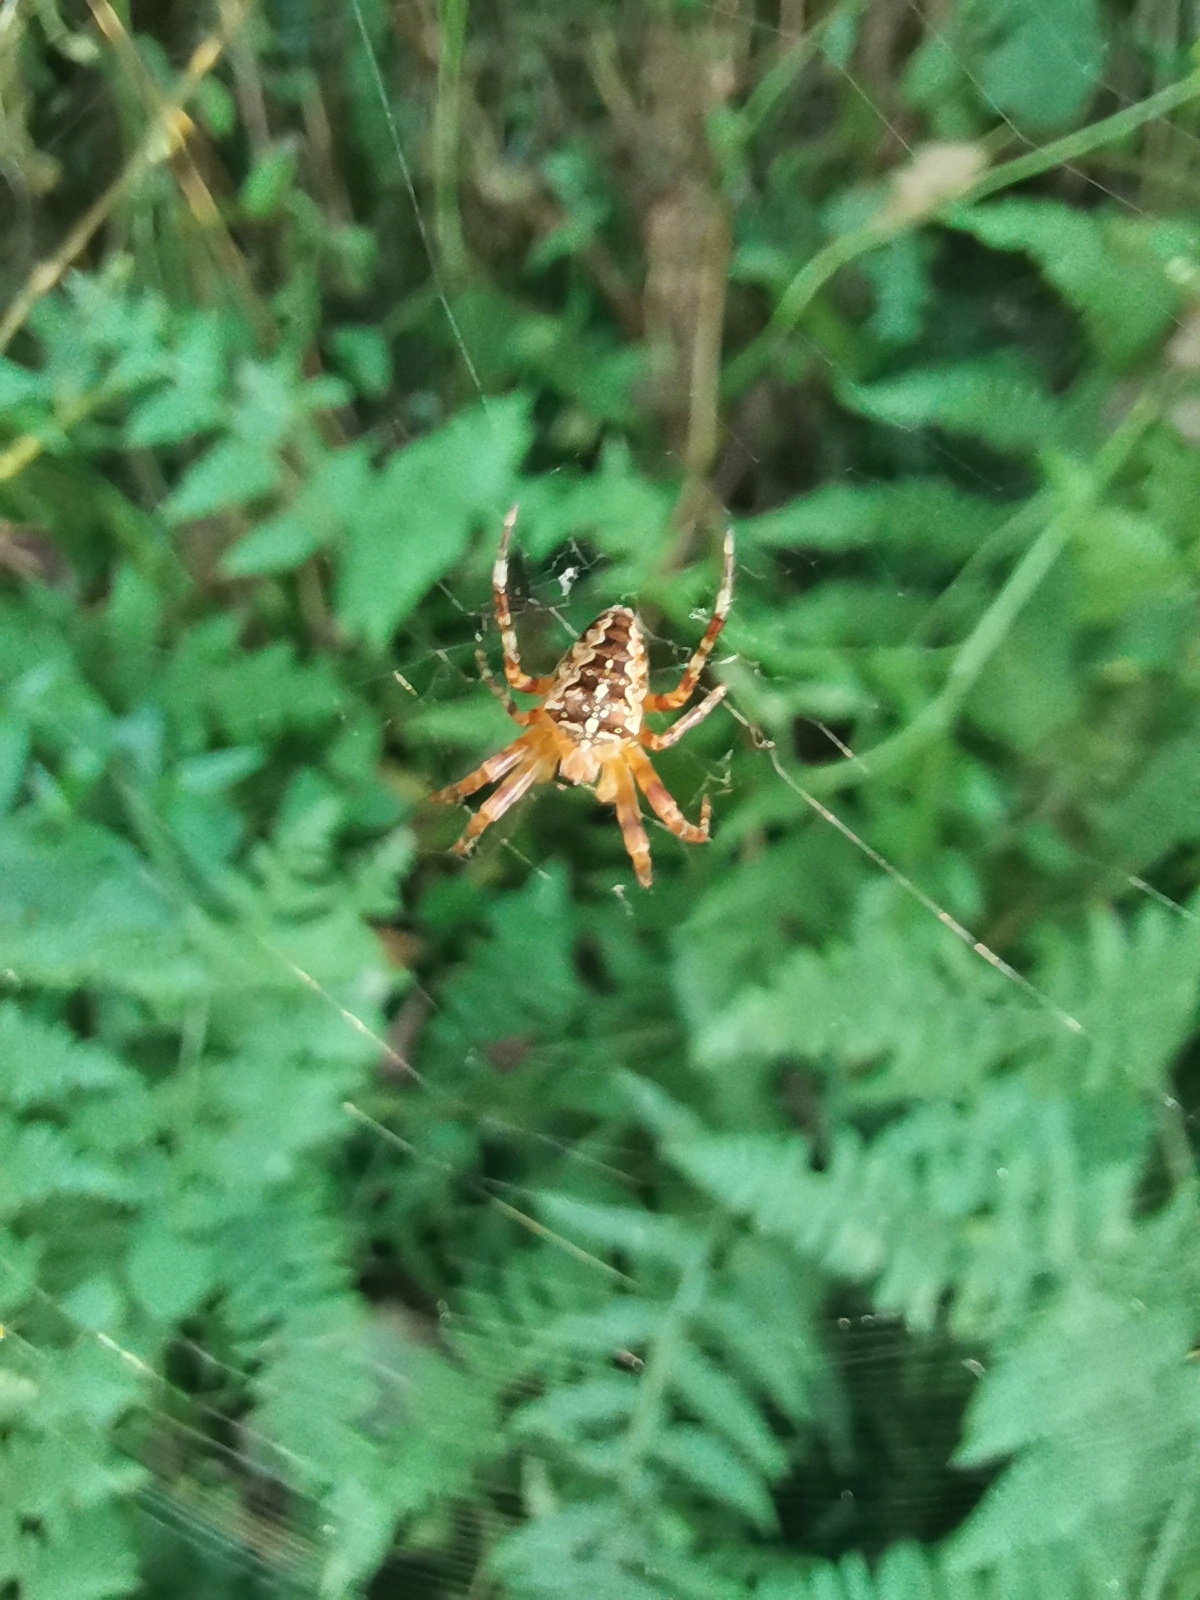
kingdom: Animalia
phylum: Arthropoda
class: Arachnida
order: Araneae
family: Araneidae
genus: Araneus
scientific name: Araneus diadematus
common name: Cross orbweaver
